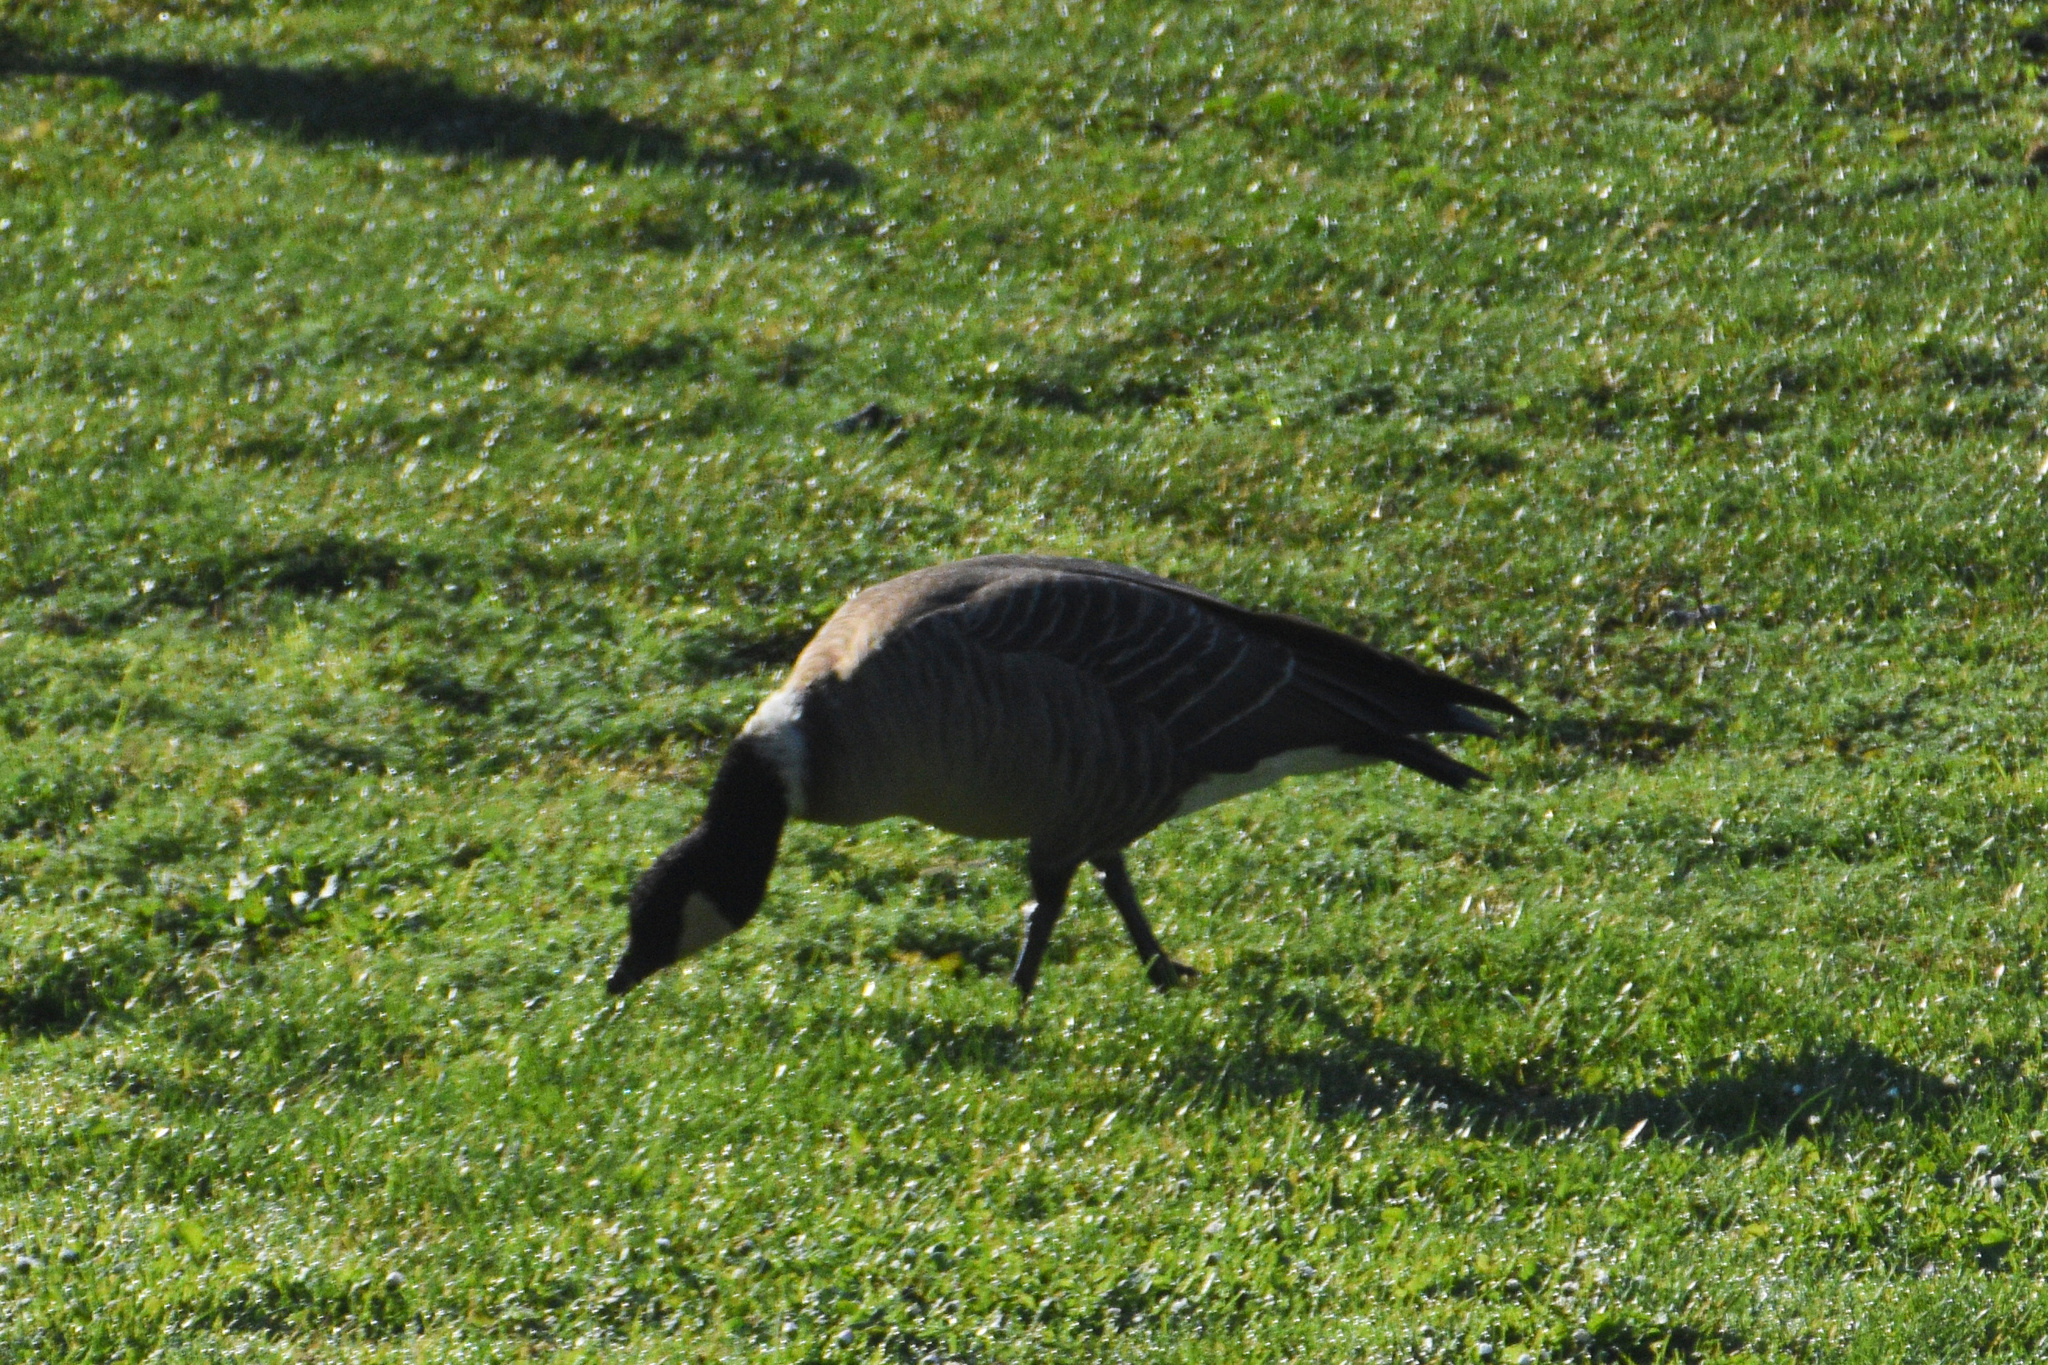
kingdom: Animalia
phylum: Chordata
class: Aves
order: Anseriformes
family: Anatidae
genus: Branta
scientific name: Branta hutchinsii
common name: Cackling goose
